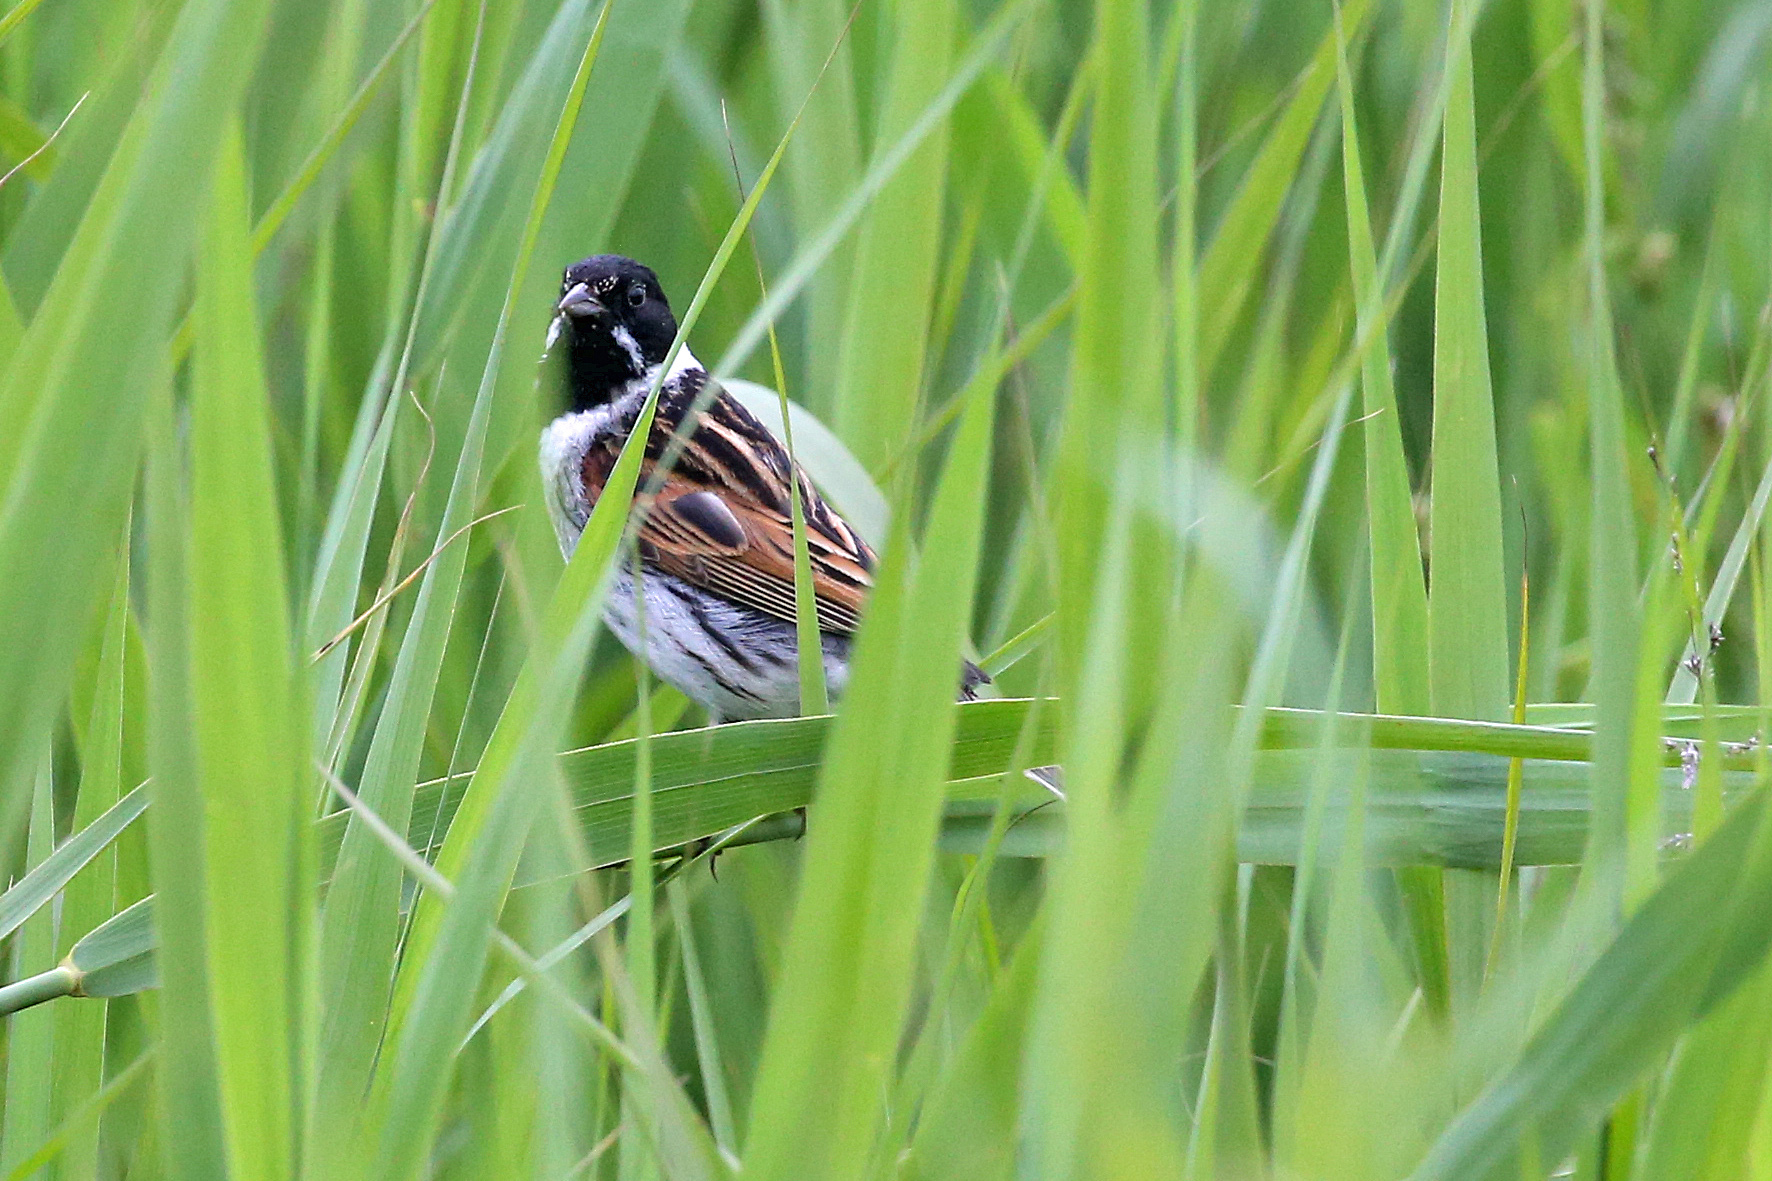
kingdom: Animalia
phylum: Chordata
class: Aves
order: Passeriformes
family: Emberizidae
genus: Emberiza
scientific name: Emberiza schoeniclus
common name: Reed bunting
